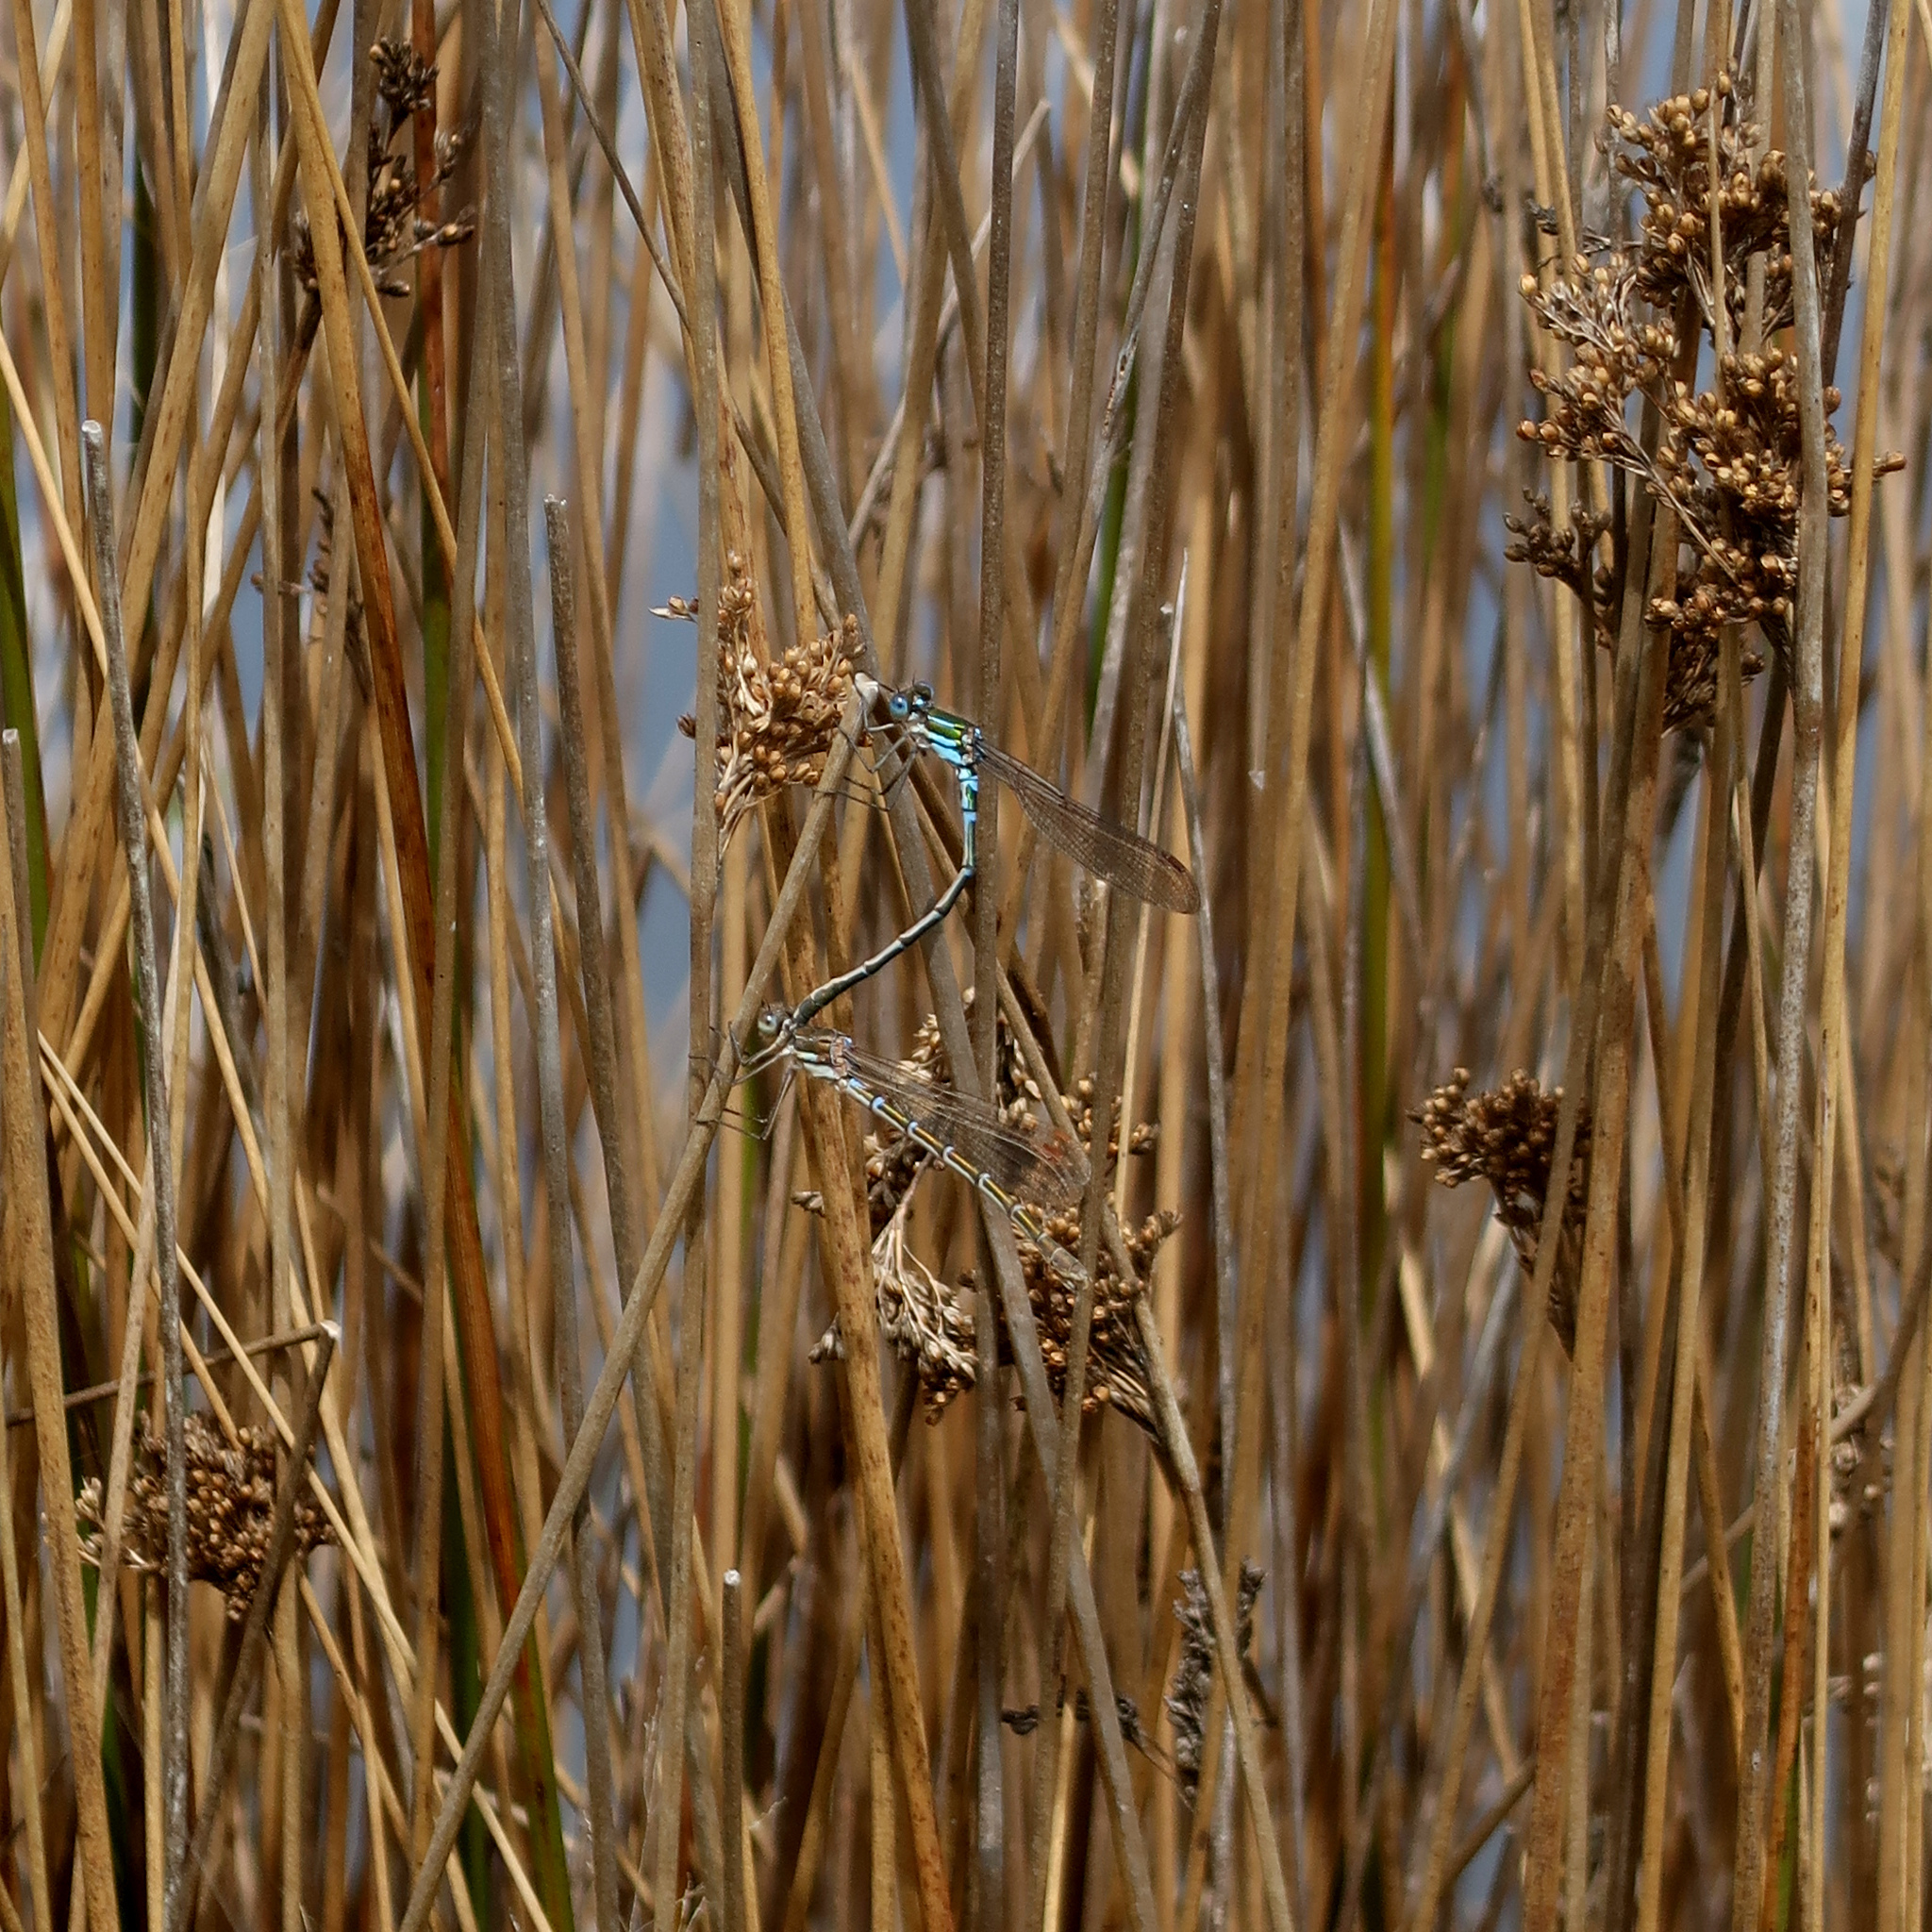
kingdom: Animalia
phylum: Arthropoda
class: Insecta
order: Odonata
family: Lestidae
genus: Austrolestes
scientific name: Austrolestes cingulatus
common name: Metallic ringtail
